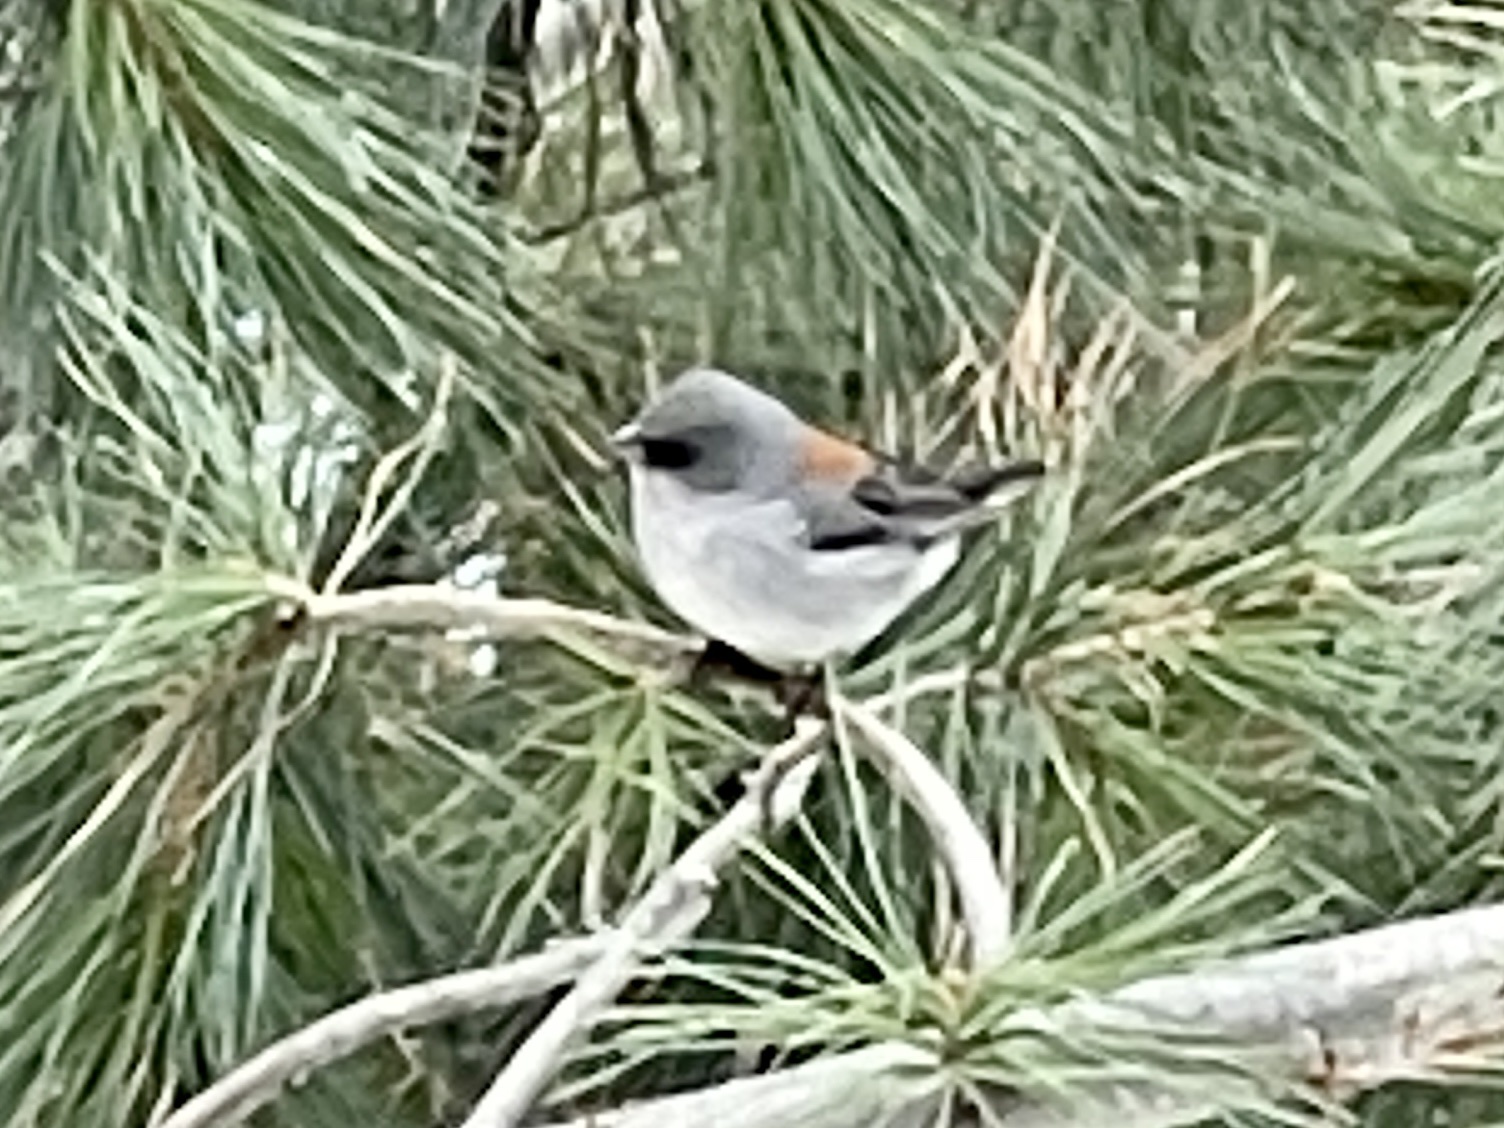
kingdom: Animalia
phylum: Chordata
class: Aves
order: Passeriformes
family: Passerellidae
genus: Junco
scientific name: Junco hyemalis
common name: Dark-eyed junco
